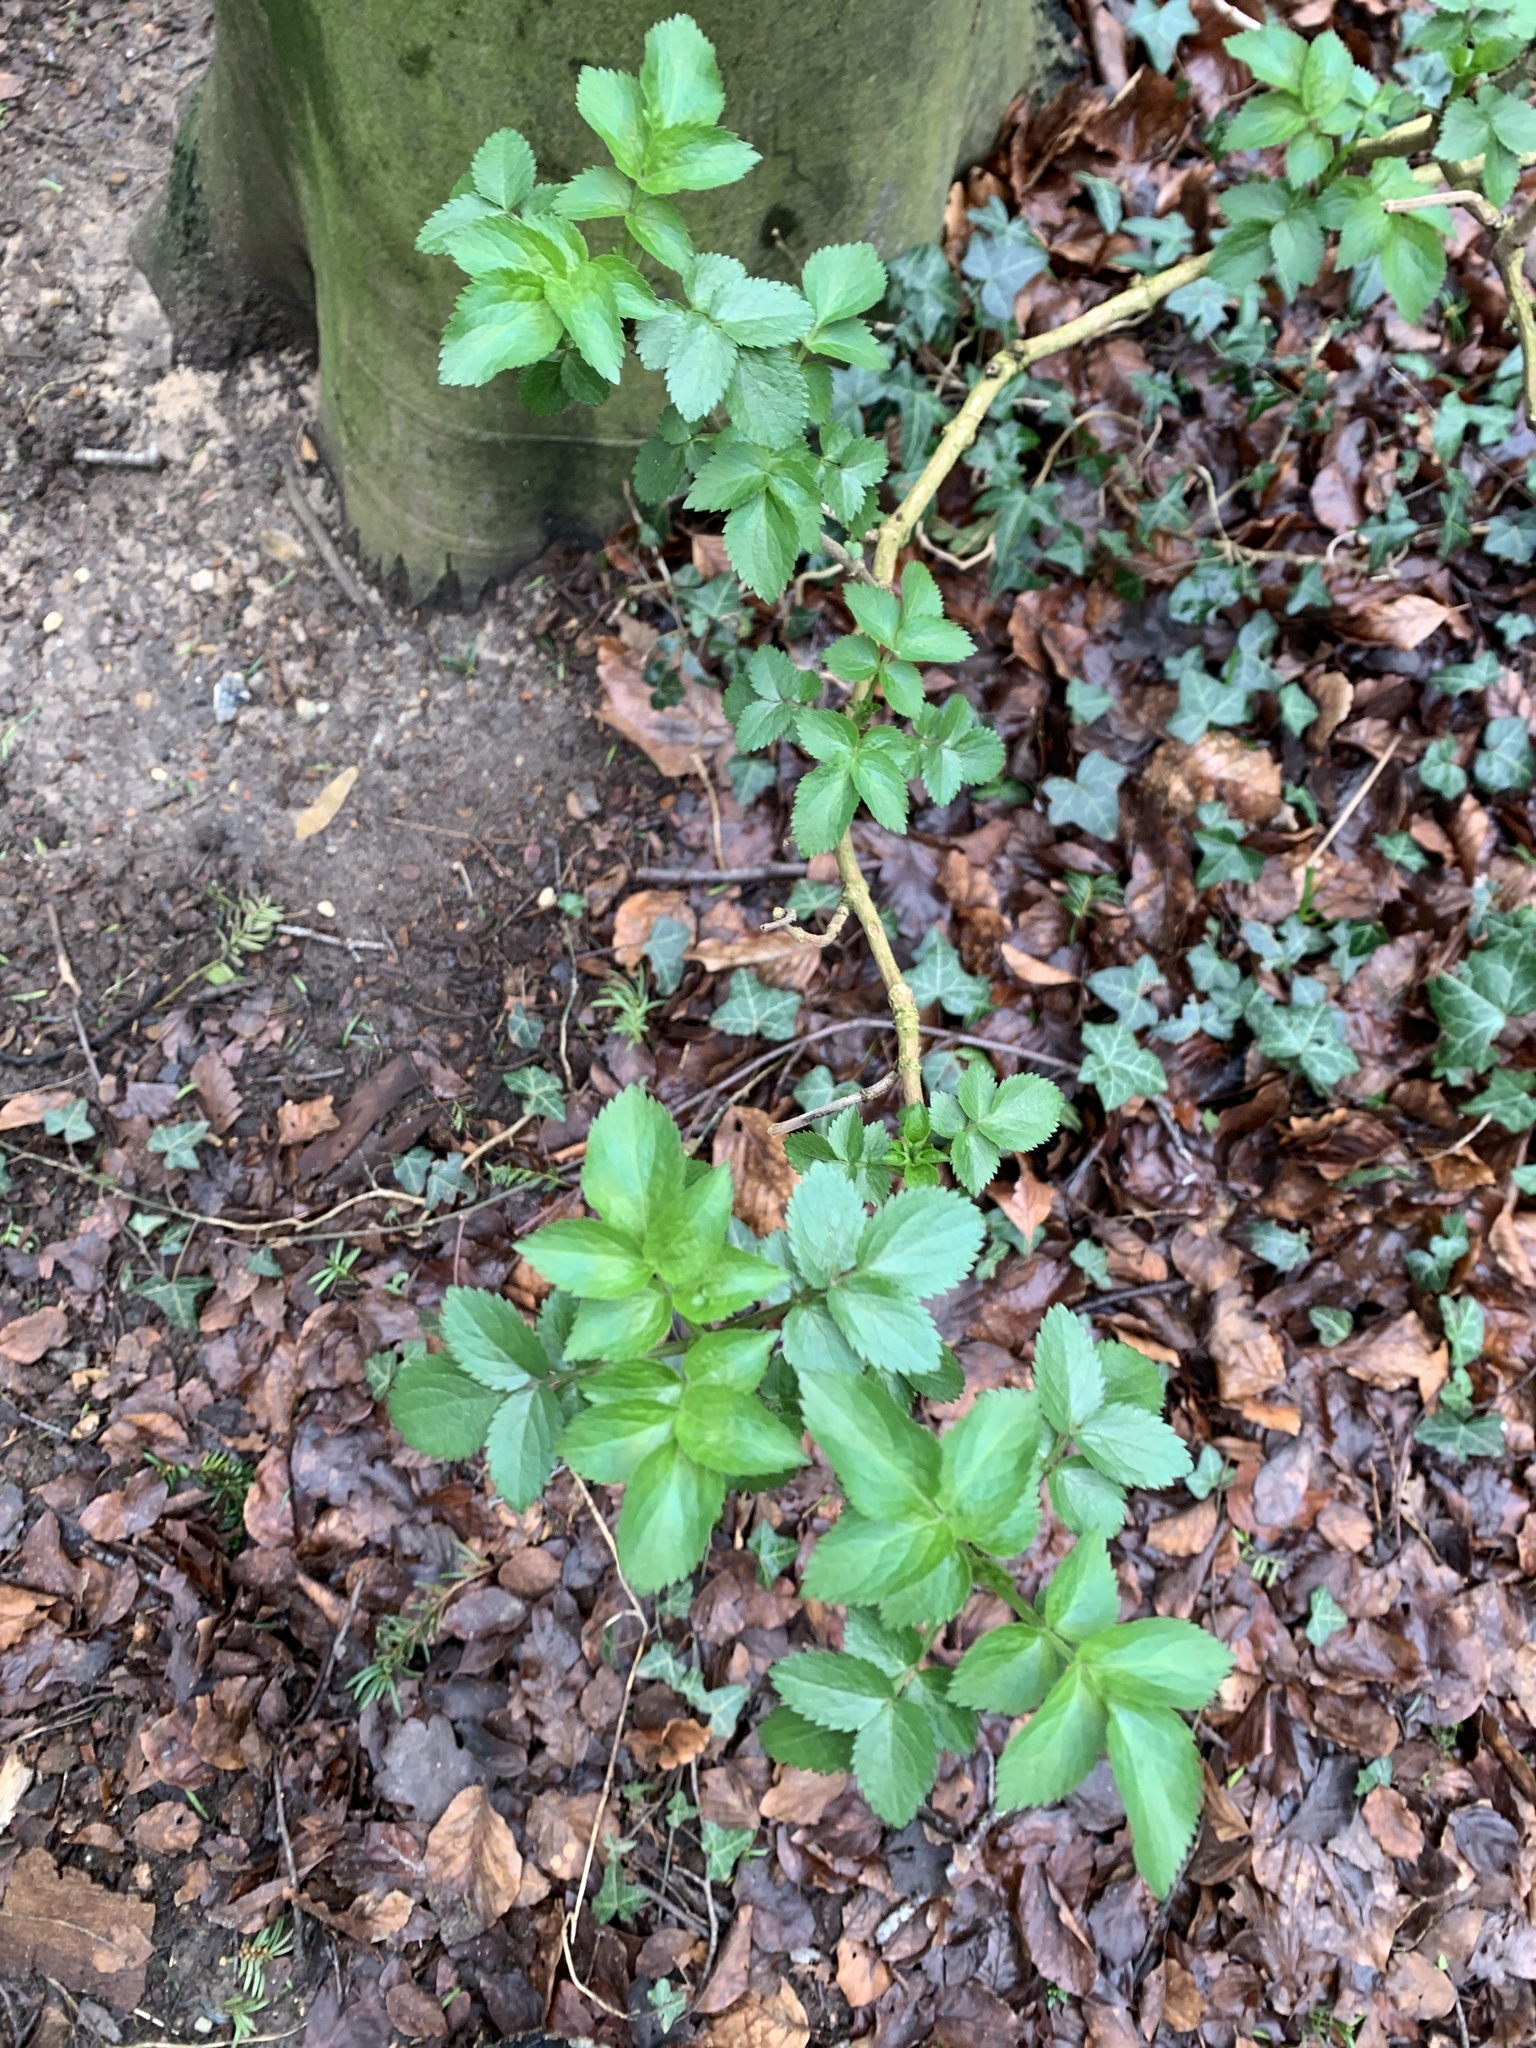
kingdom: Plantae
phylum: Tracheophyta
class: Magnoliopsida
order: Dipsacales
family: Viburnaceae
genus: Sambucus
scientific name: Sambucus nigra
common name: Elder
